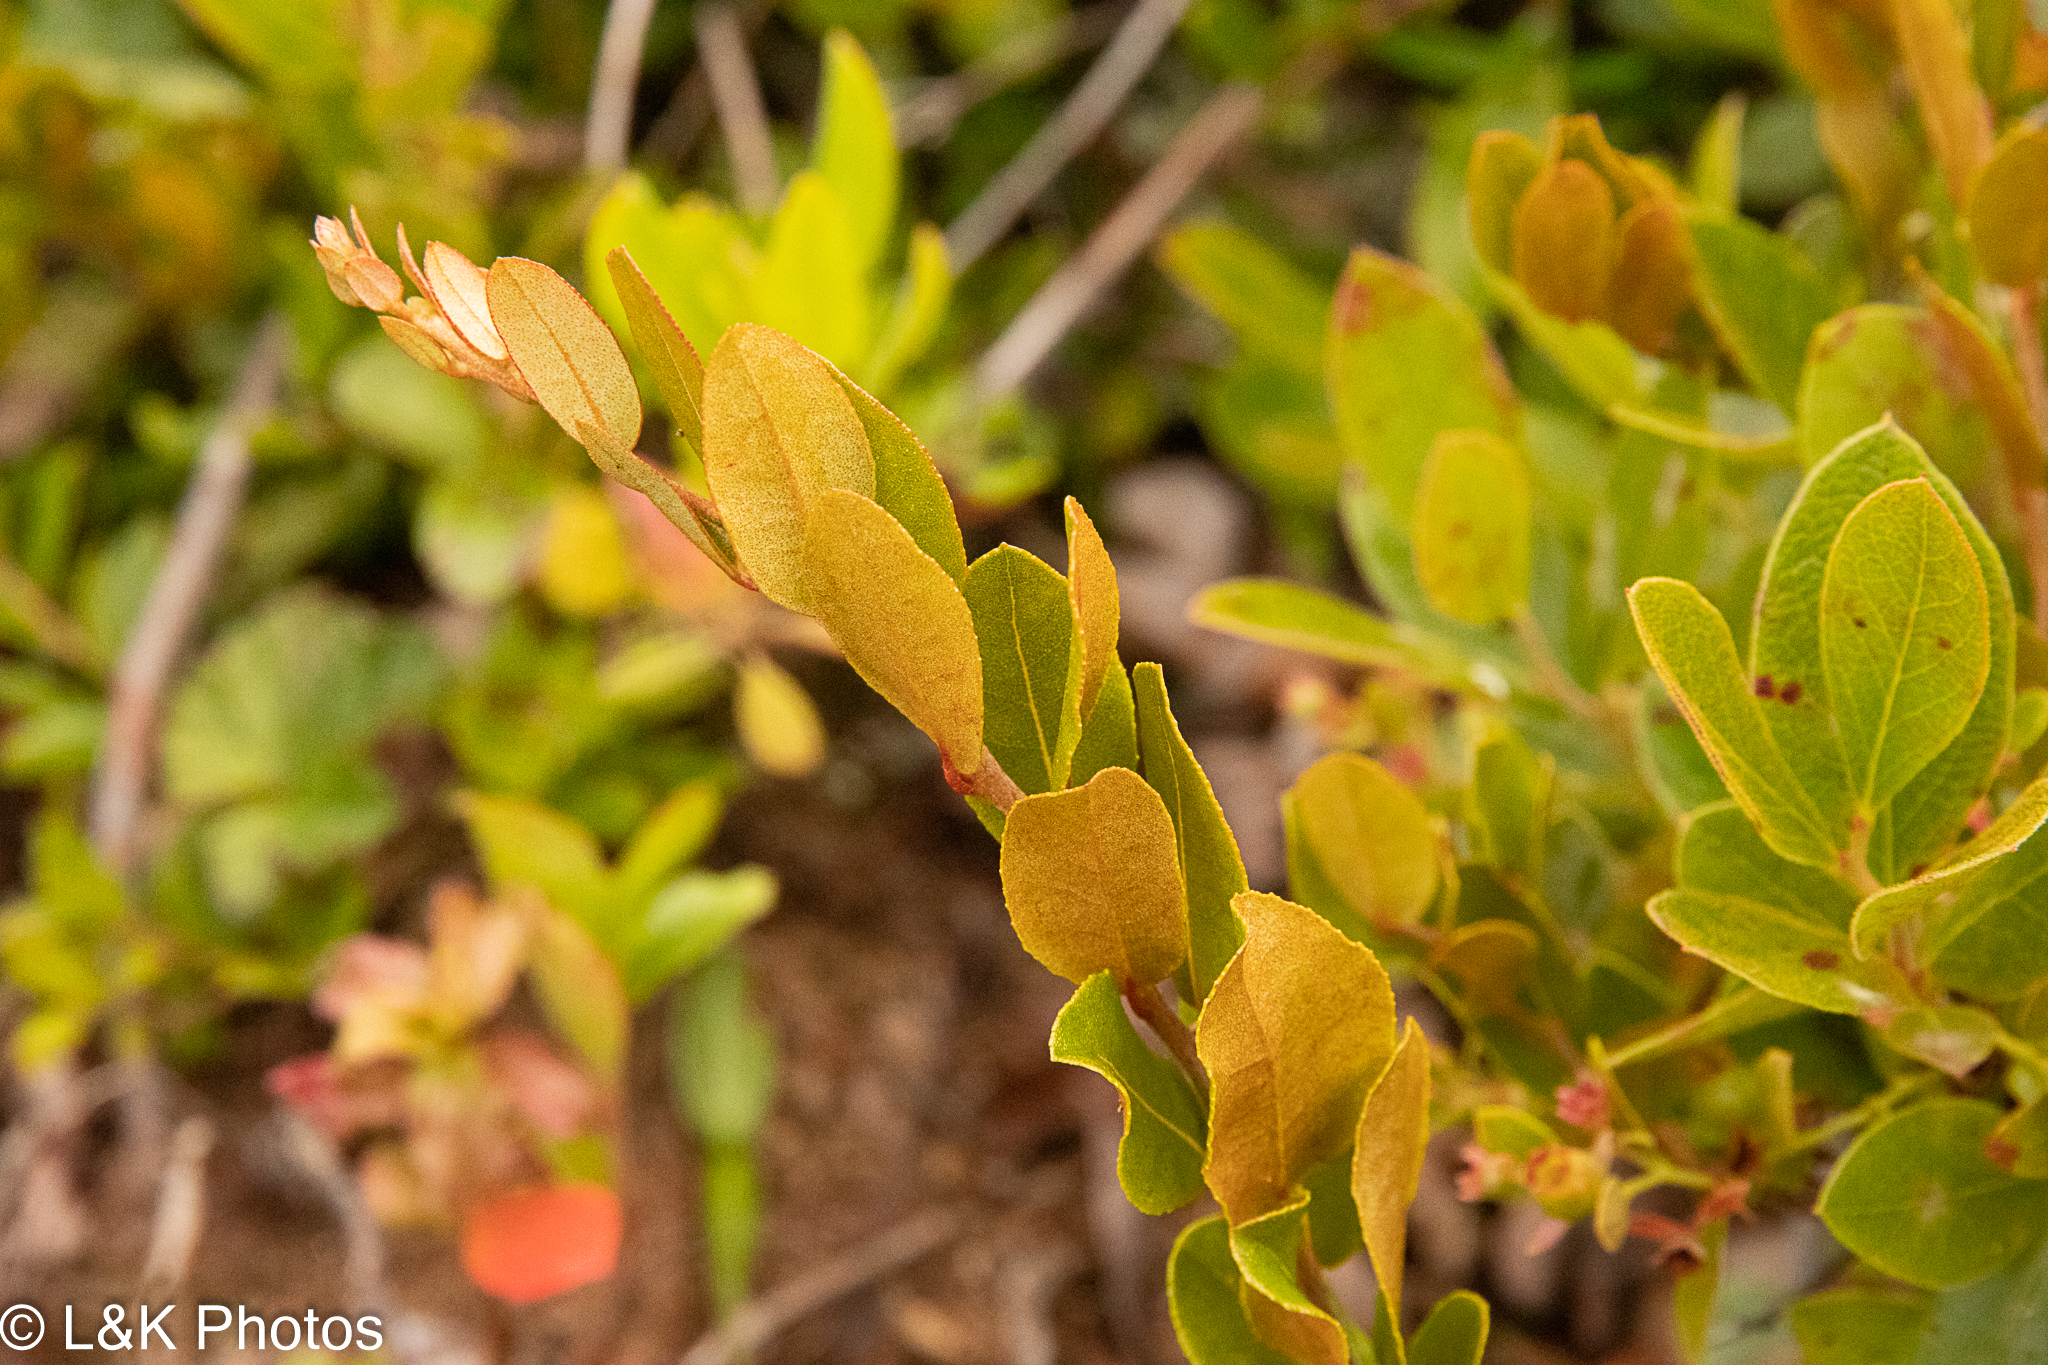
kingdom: Plantae
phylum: Tracheophyta
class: Magnoliopsida
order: Ericales
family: Ericaceae
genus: Chamaedaphne
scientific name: Chamaedaphne calyculata
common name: Leatherleaf
